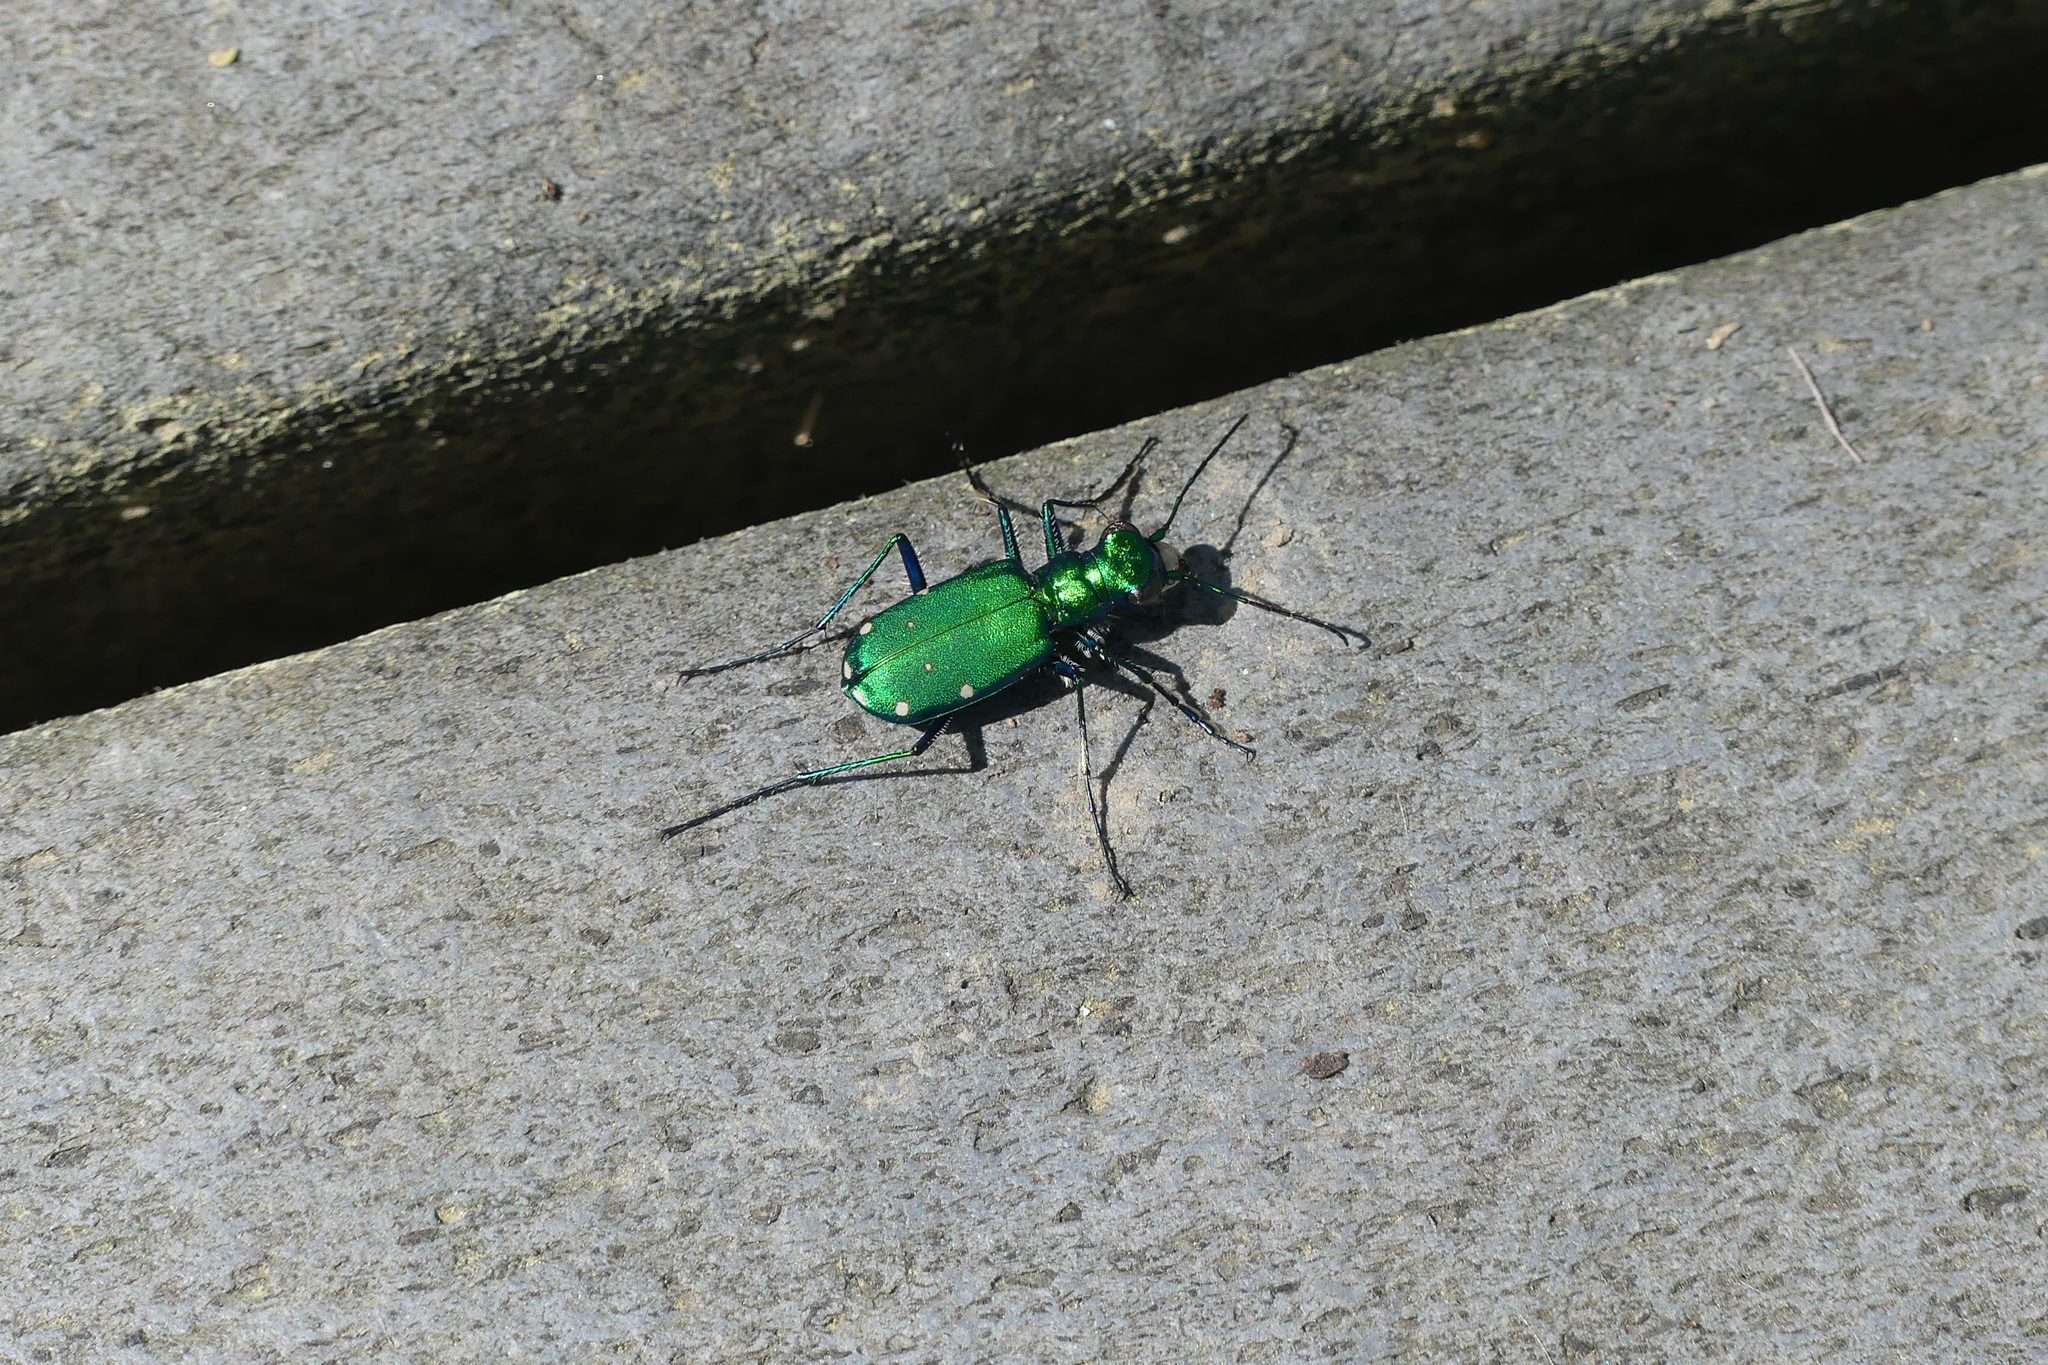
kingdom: Animalia
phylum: Arthropoda
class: Insecta
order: Coleoptera
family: Carabidae
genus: Cicindela
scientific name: Cicindela sexguttata
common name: Six-spotted tiger beetle
